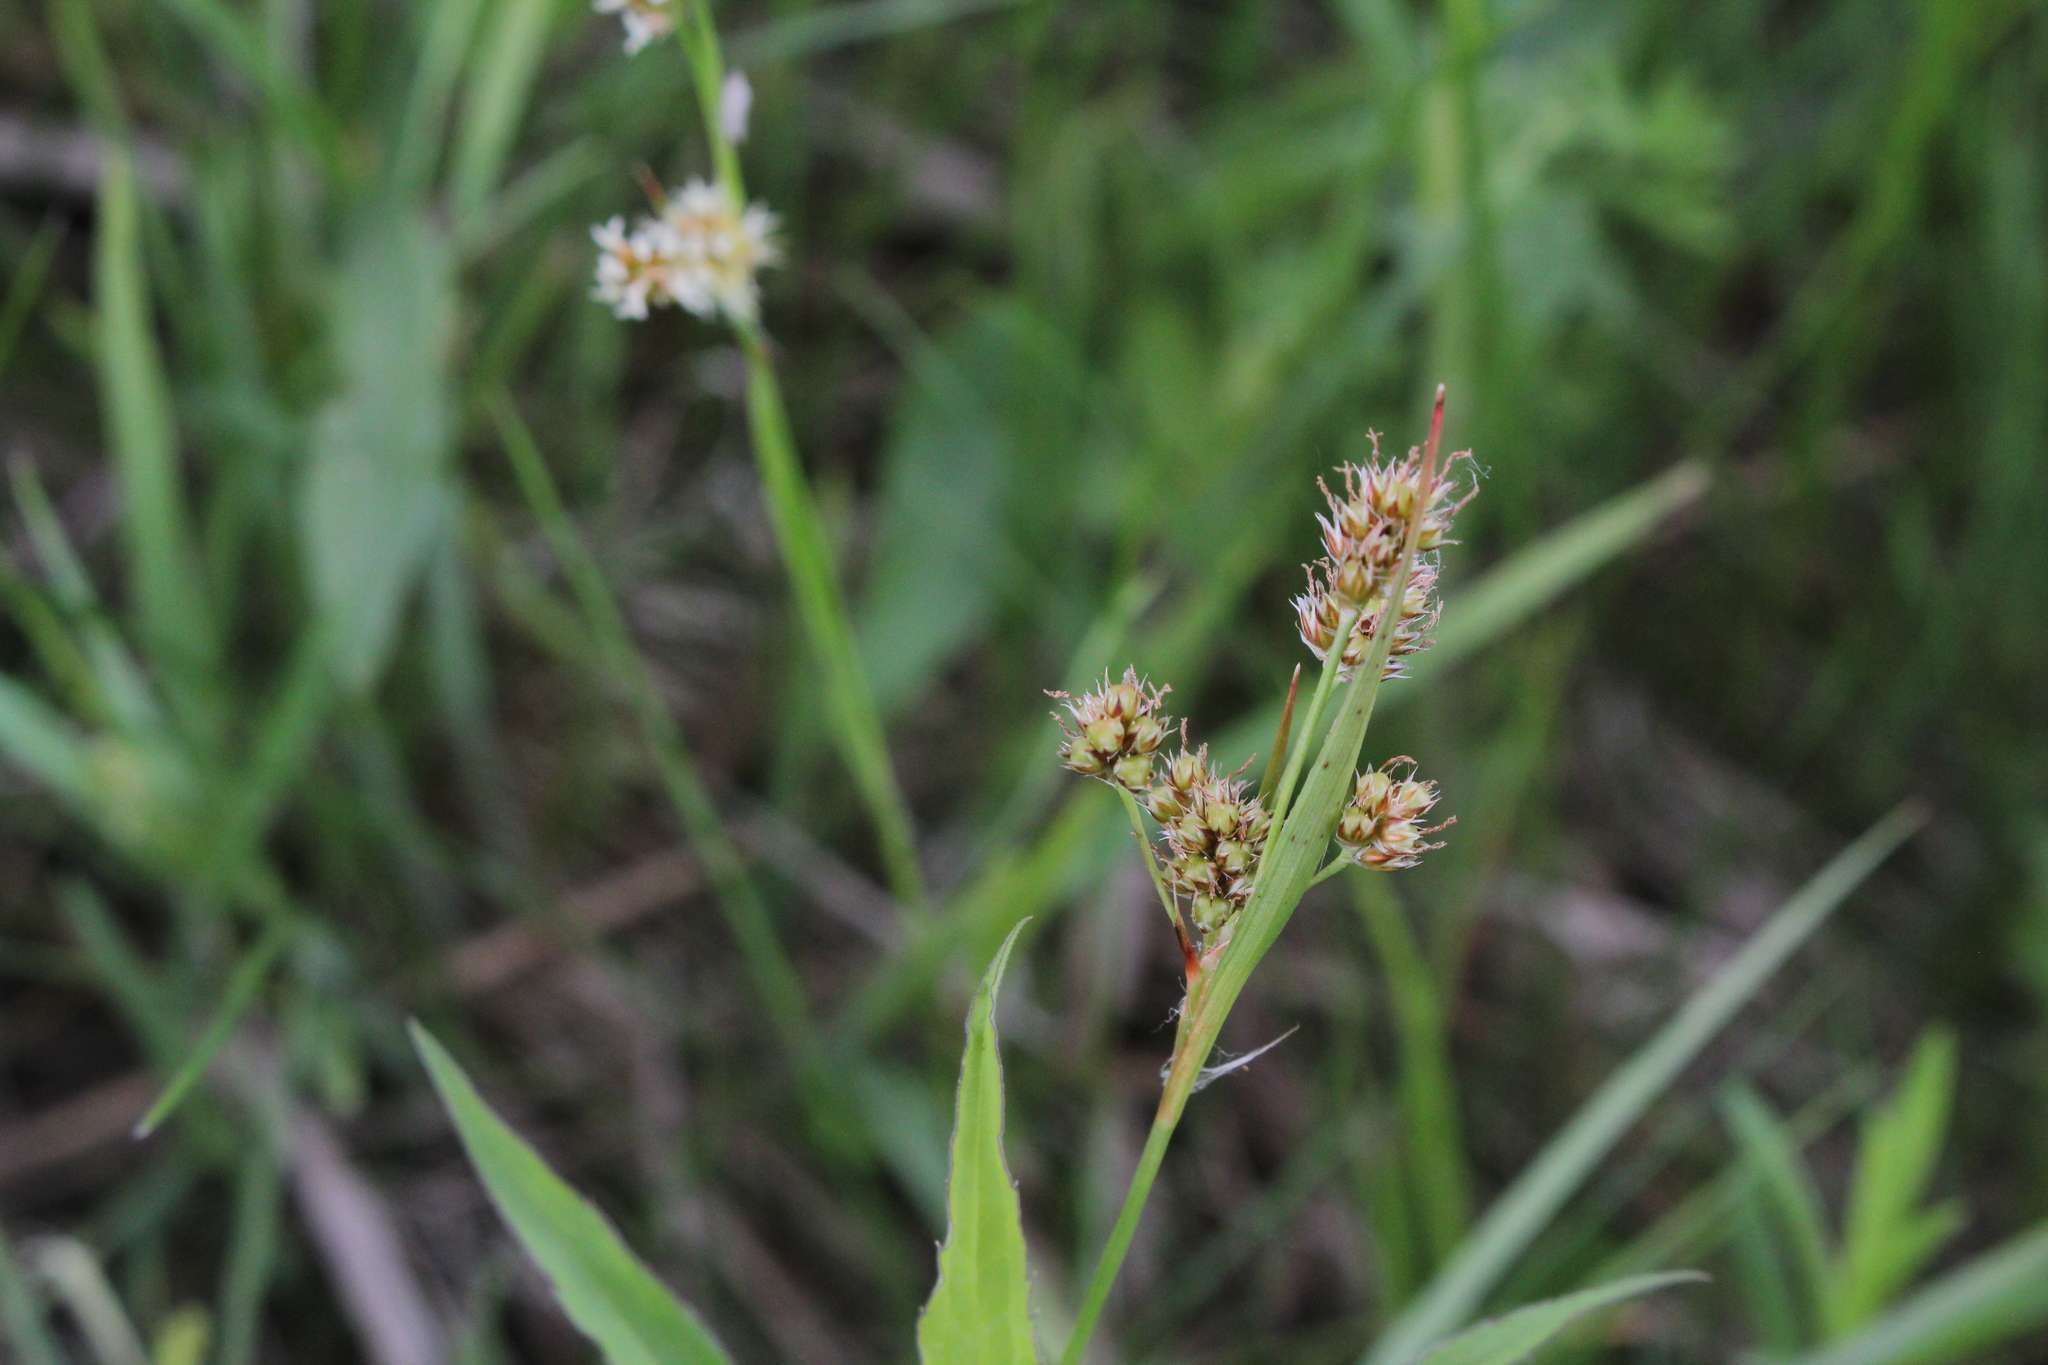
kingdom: Plantae
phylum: Tracheophyta
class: Liliopsida
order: Poales
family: Juncaceae
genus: Luzula
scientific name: Luzula multiflora
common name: Heath wood-rush
